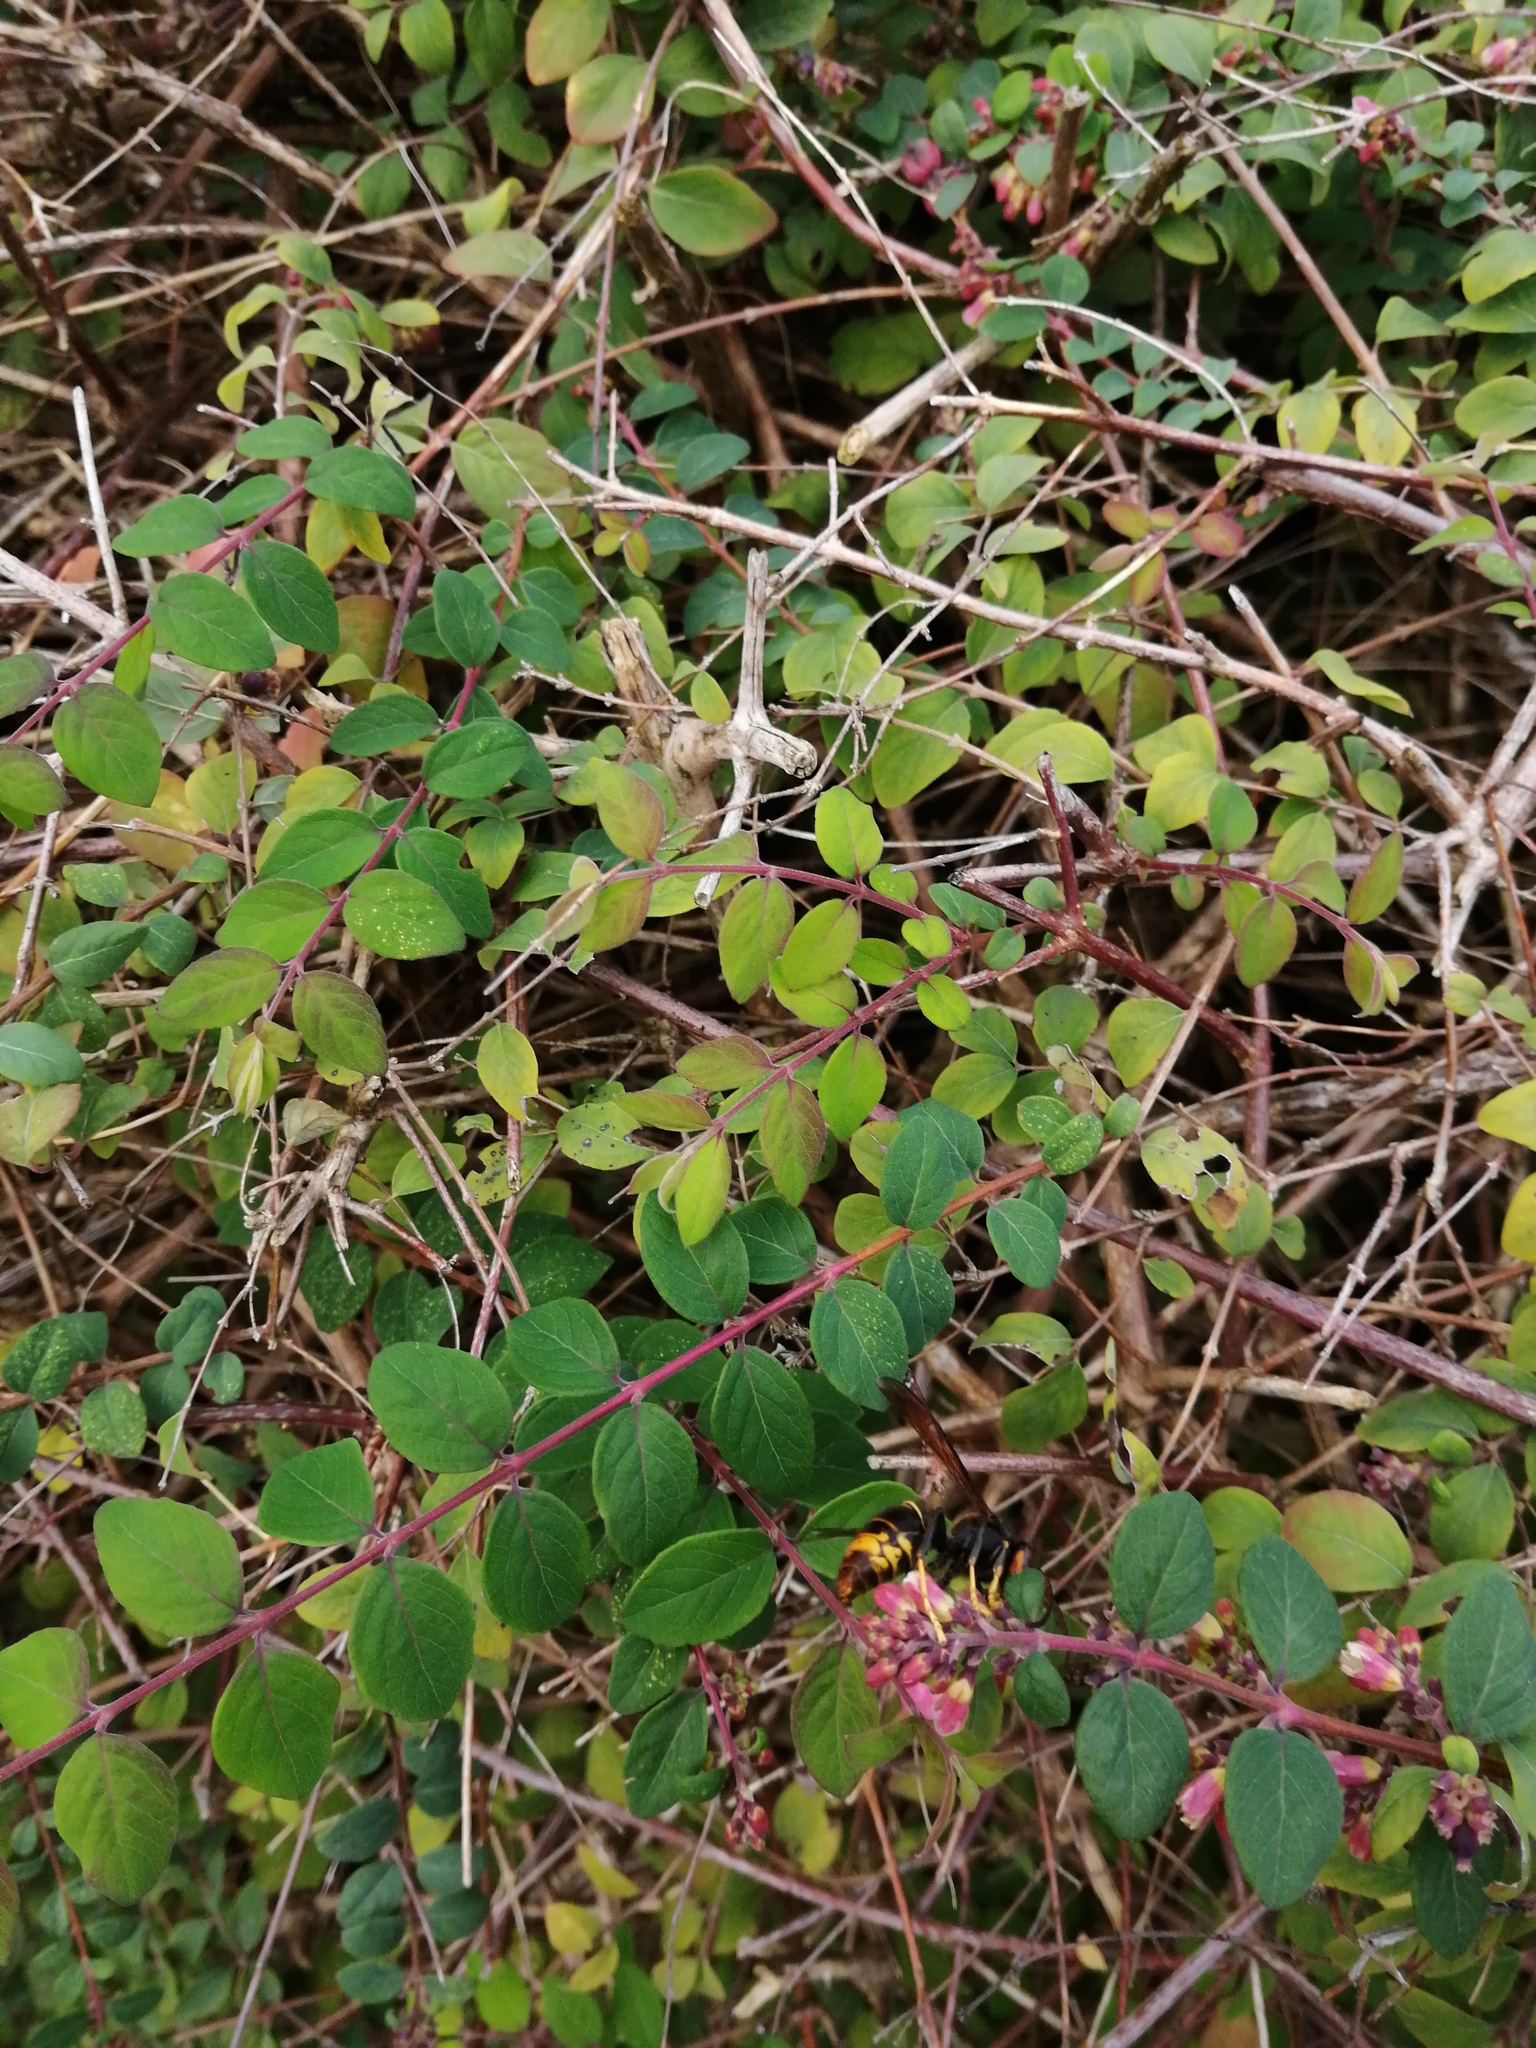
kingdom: Animalia
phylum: Arthropoda
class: Insecta
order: Hymenoptera
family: Vespidae
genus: Vespa
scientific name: Vespa velutina
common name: Asian hornet
